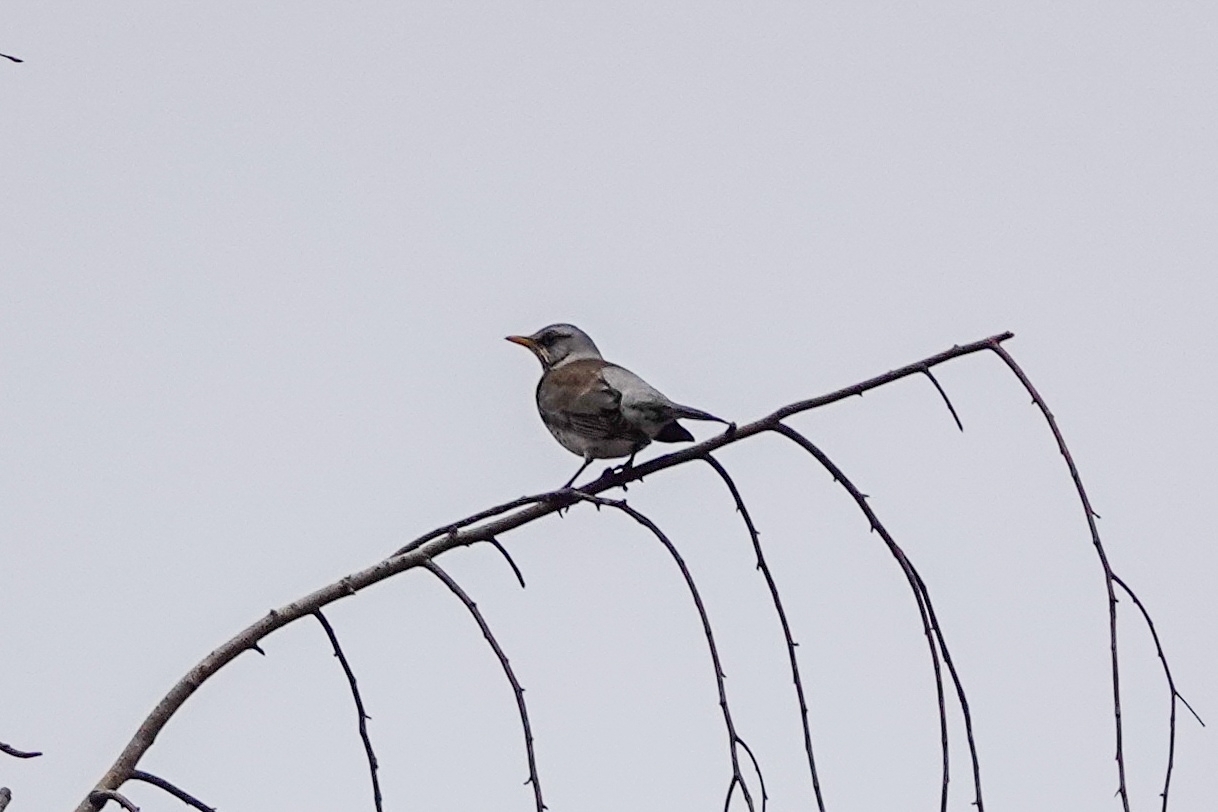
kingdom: Animalia
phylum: Chordata
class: Aves
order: Passeriformes
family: Turdidae
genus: Turdus
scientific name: Turdus pilaris
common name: Fieldfare
